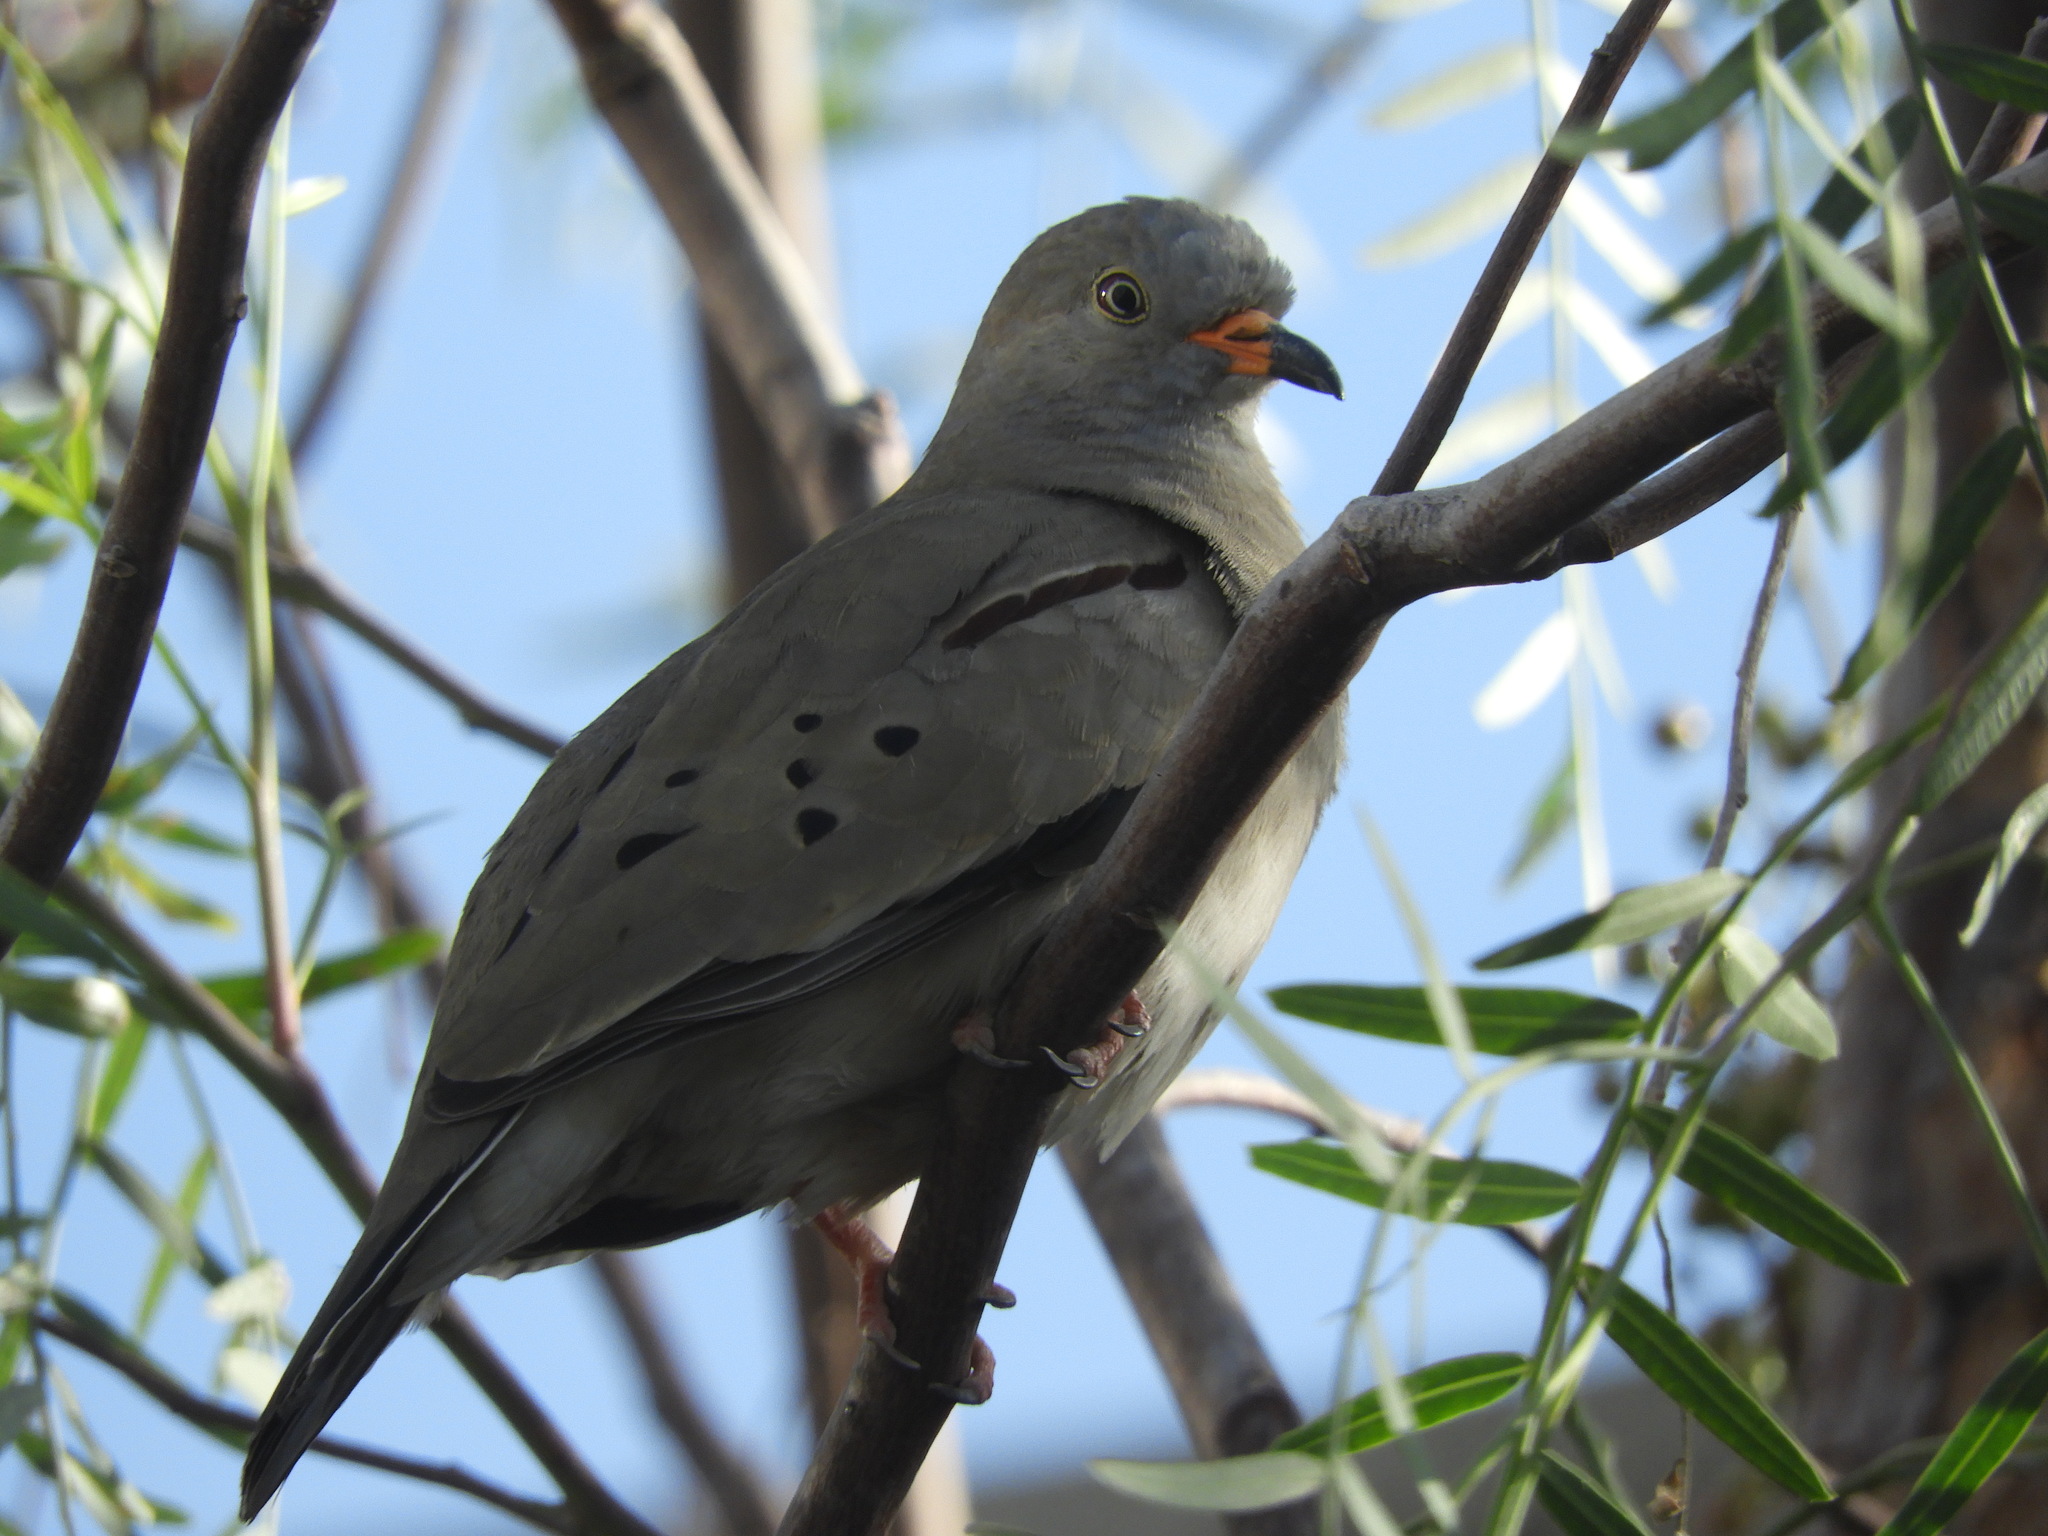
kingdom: Animalia
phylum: Chordata
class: Aves
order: Columbiformes
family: Columbidae
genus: Columbina
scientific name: Columbina cruziana
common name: Croaking ground dove
